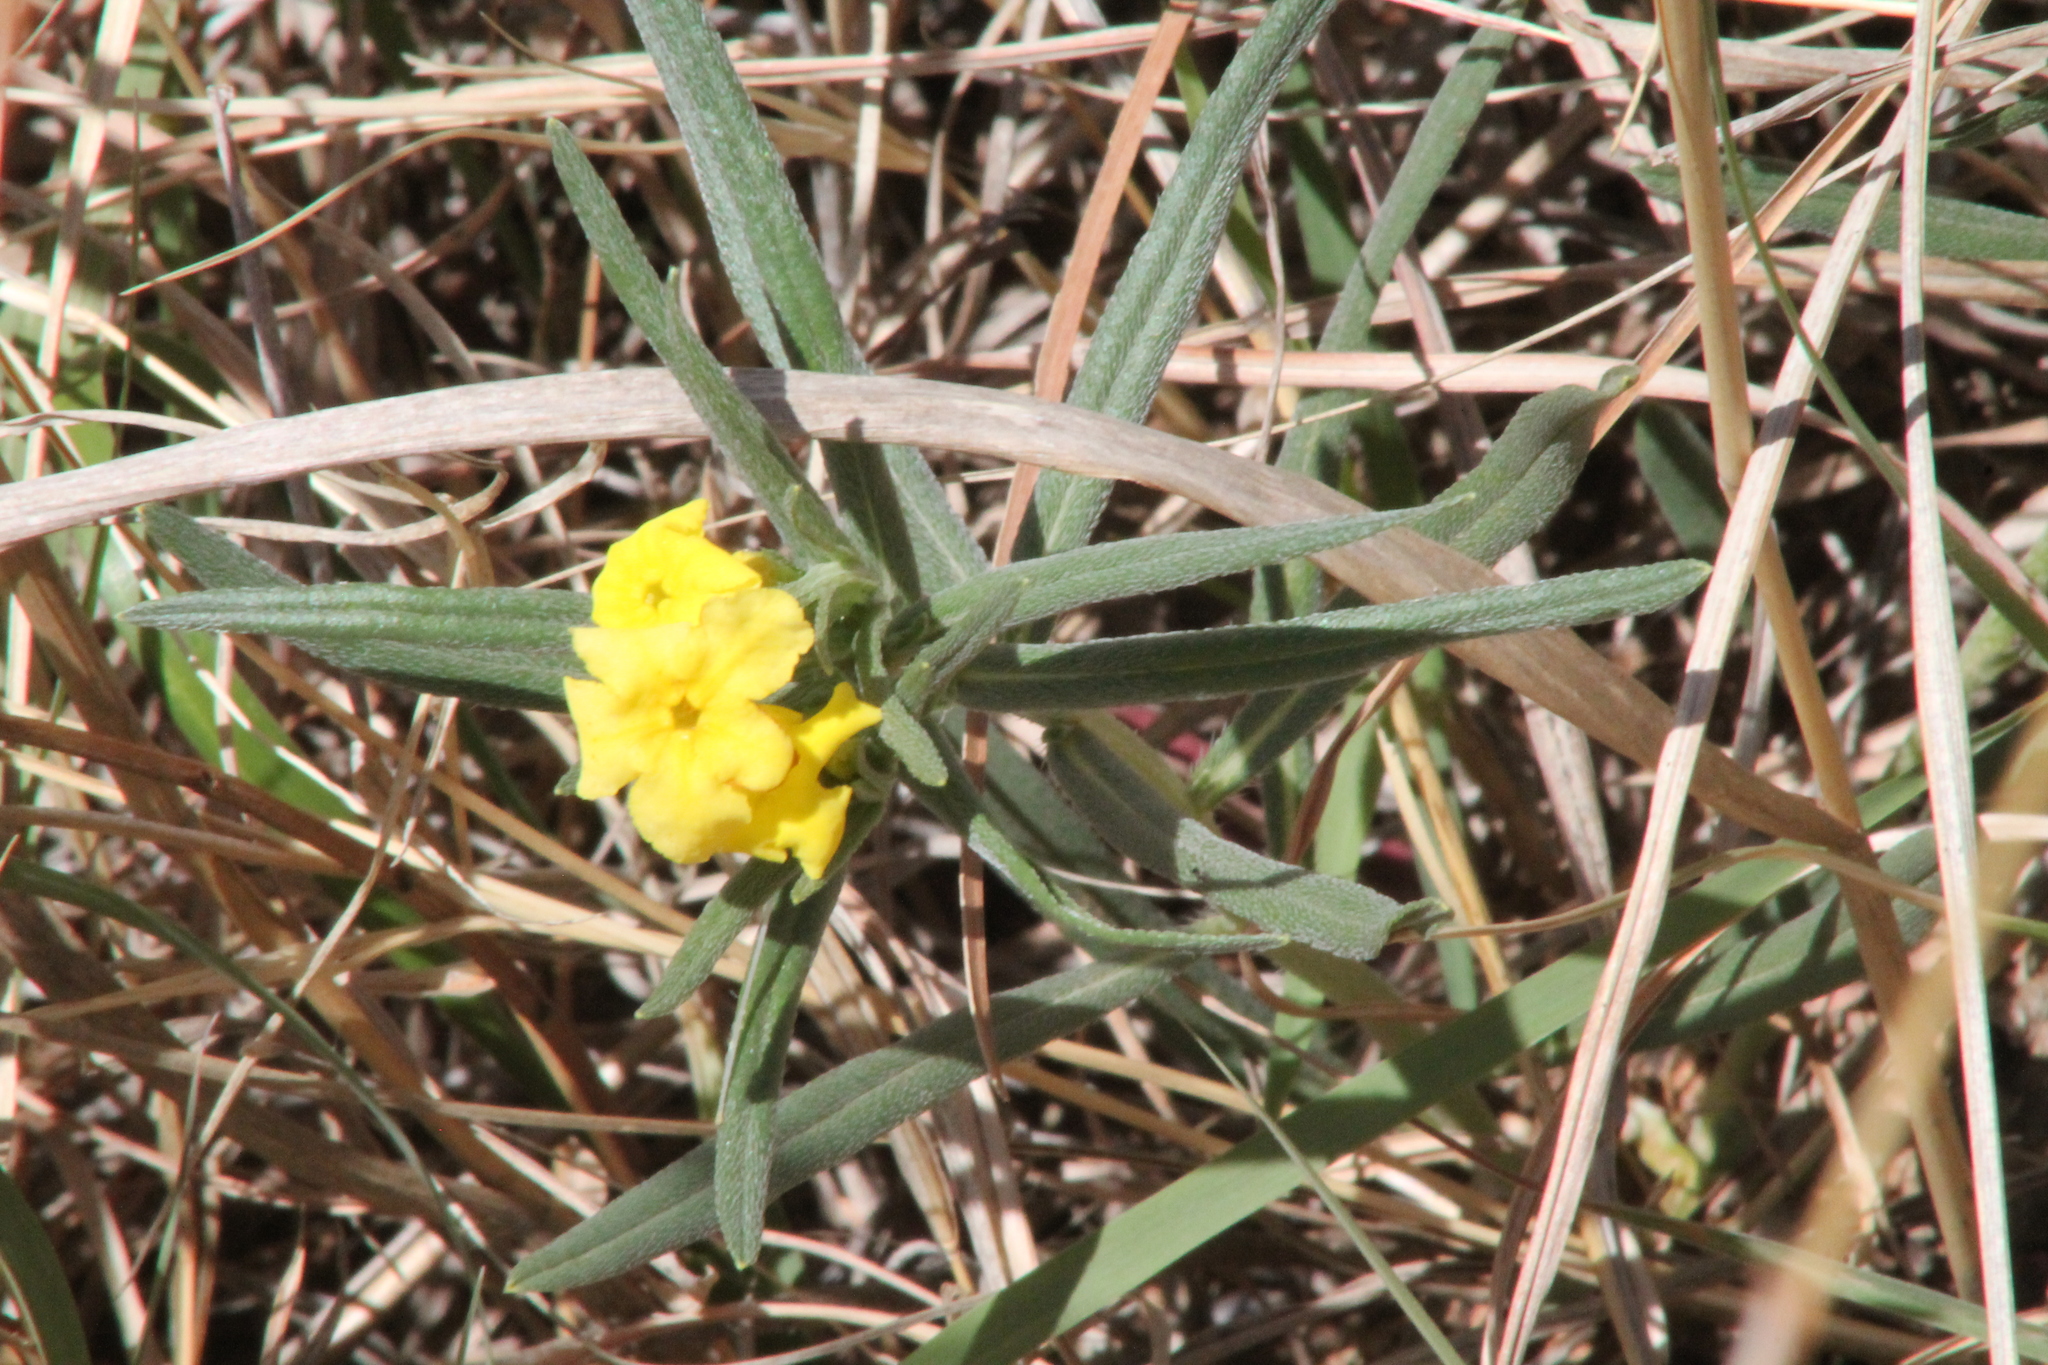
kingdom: Plantae
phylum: Tracheophyta
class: Magnoliopsida
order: Boraginales
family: Boraginaceae
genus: Lithospermum
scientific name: Lithospermum incisum
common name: Fringed gromwell
